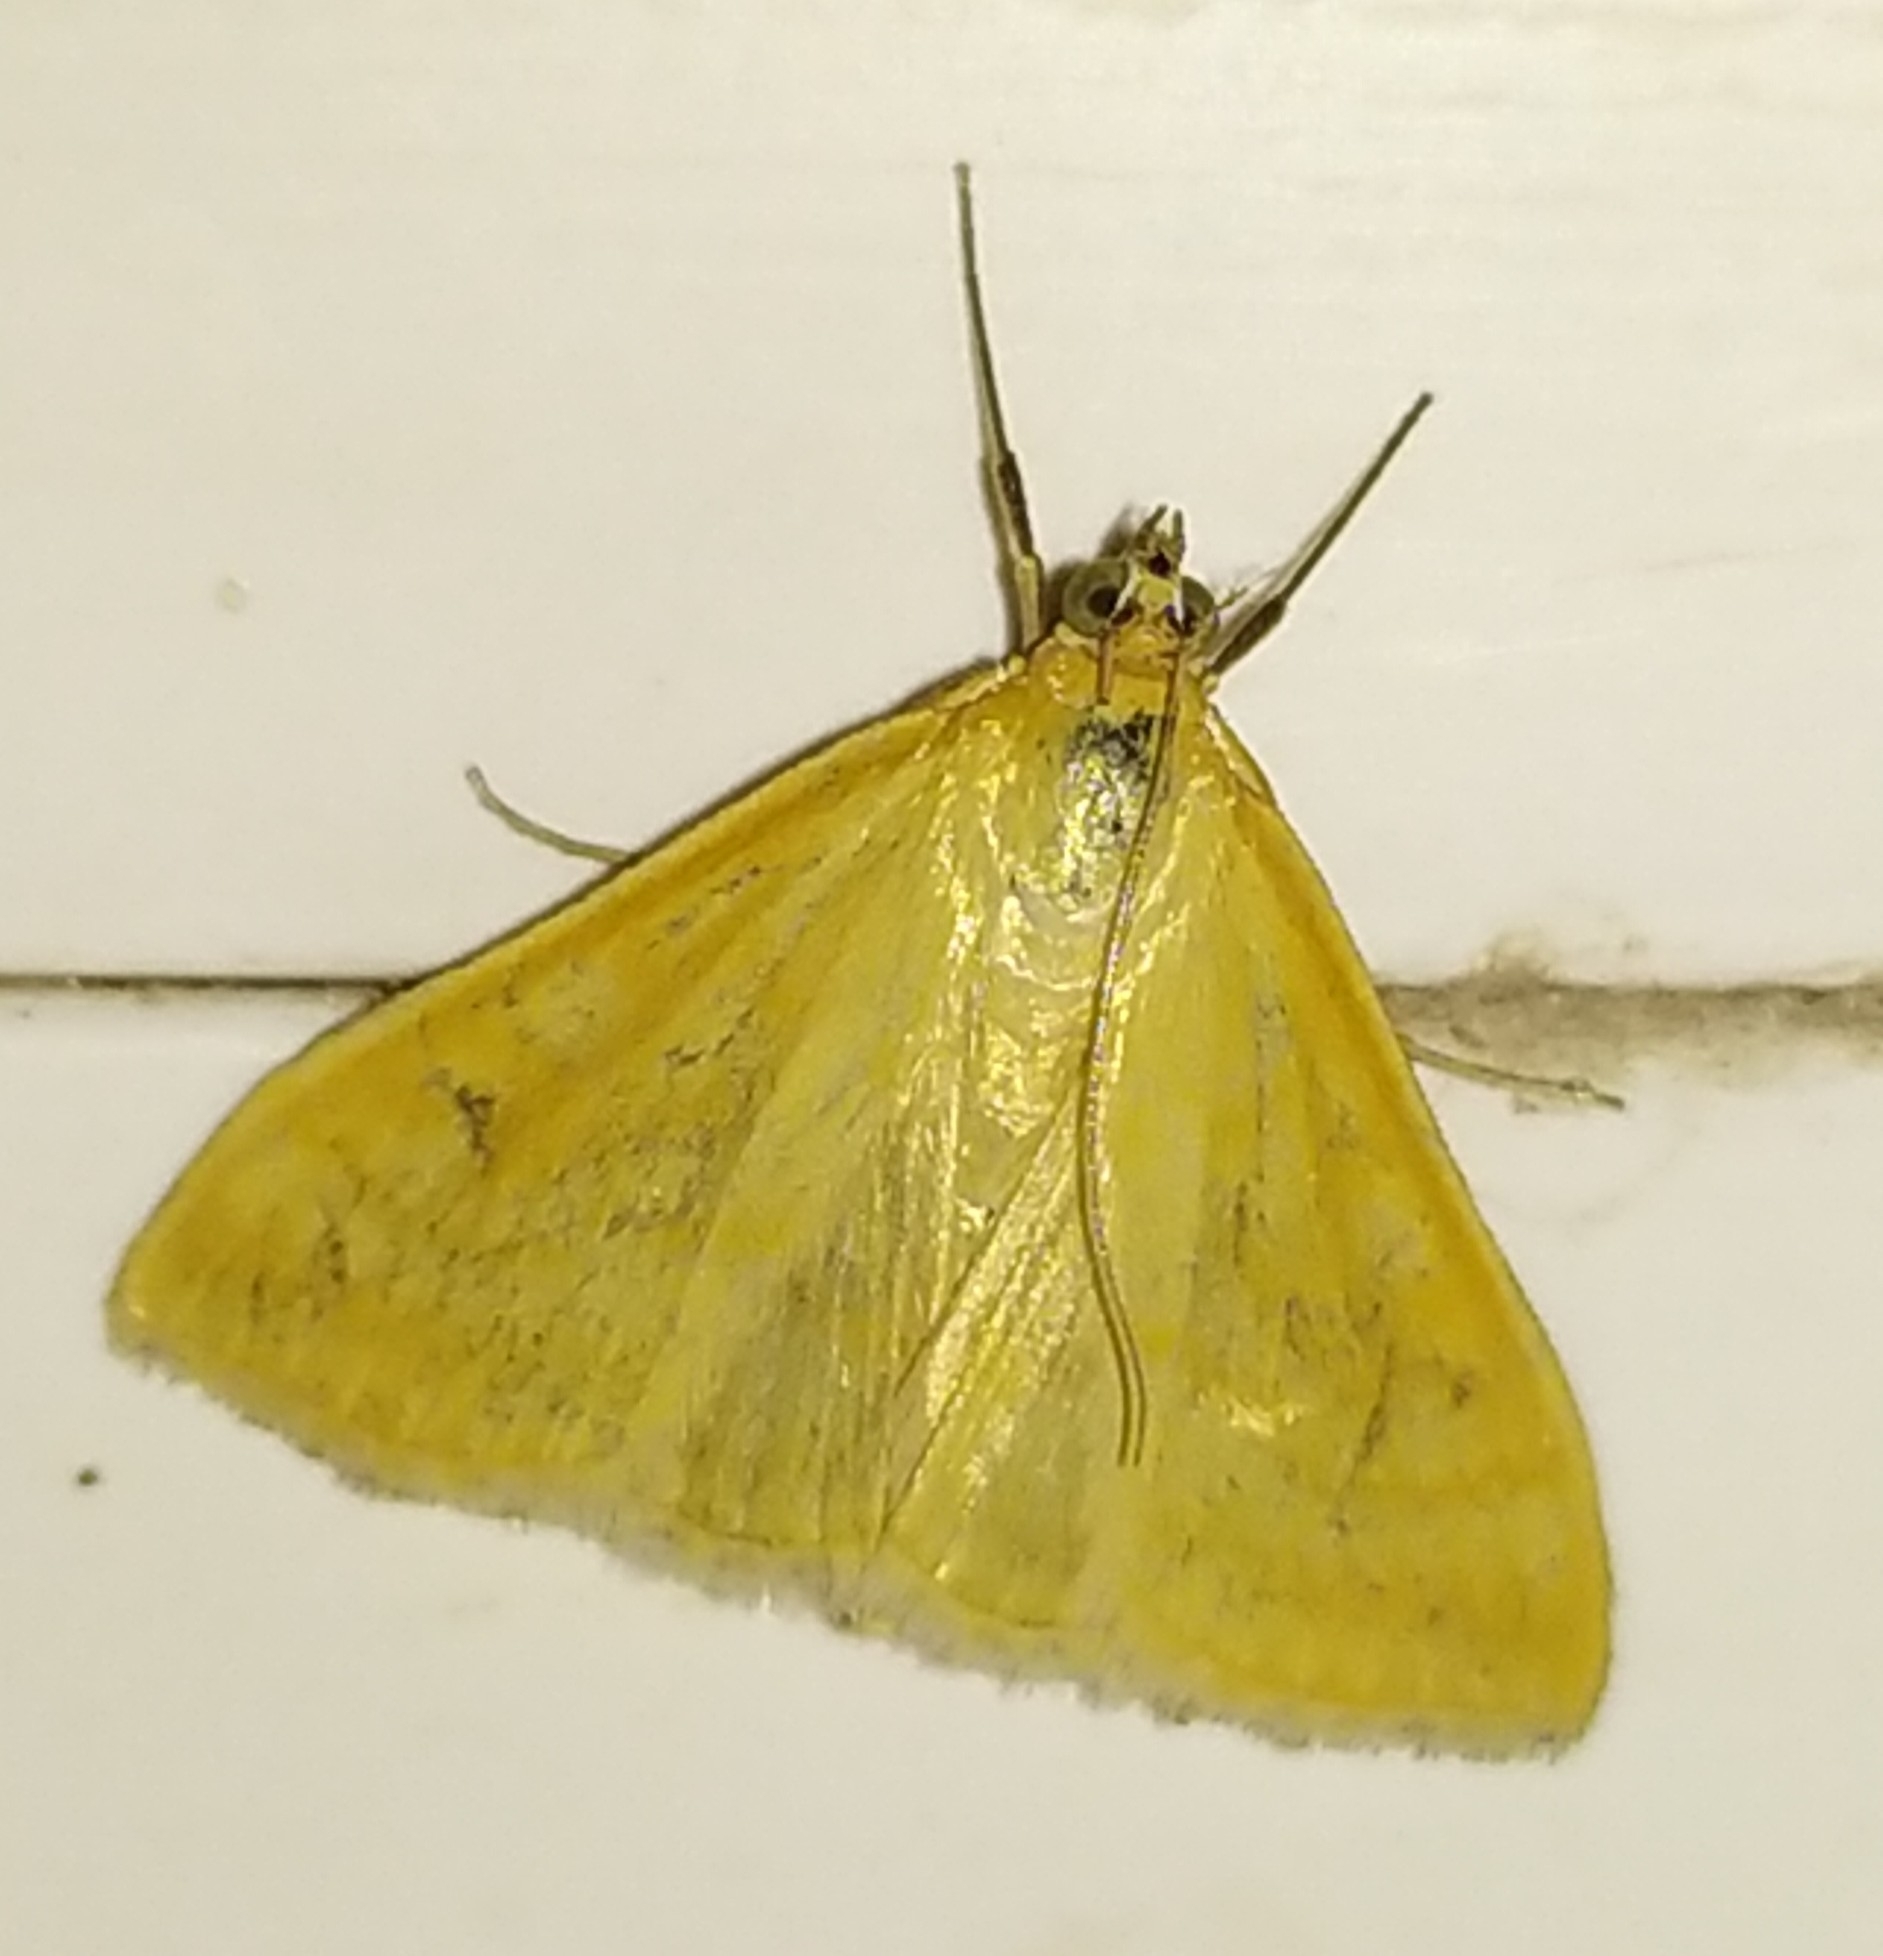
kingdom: Animalia
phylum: Arthropoda
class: Insecta
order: Lepidoptera
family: Crambidae
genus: Sitochroa
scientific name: Sitochroa verticalis
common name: Lesser pearl
